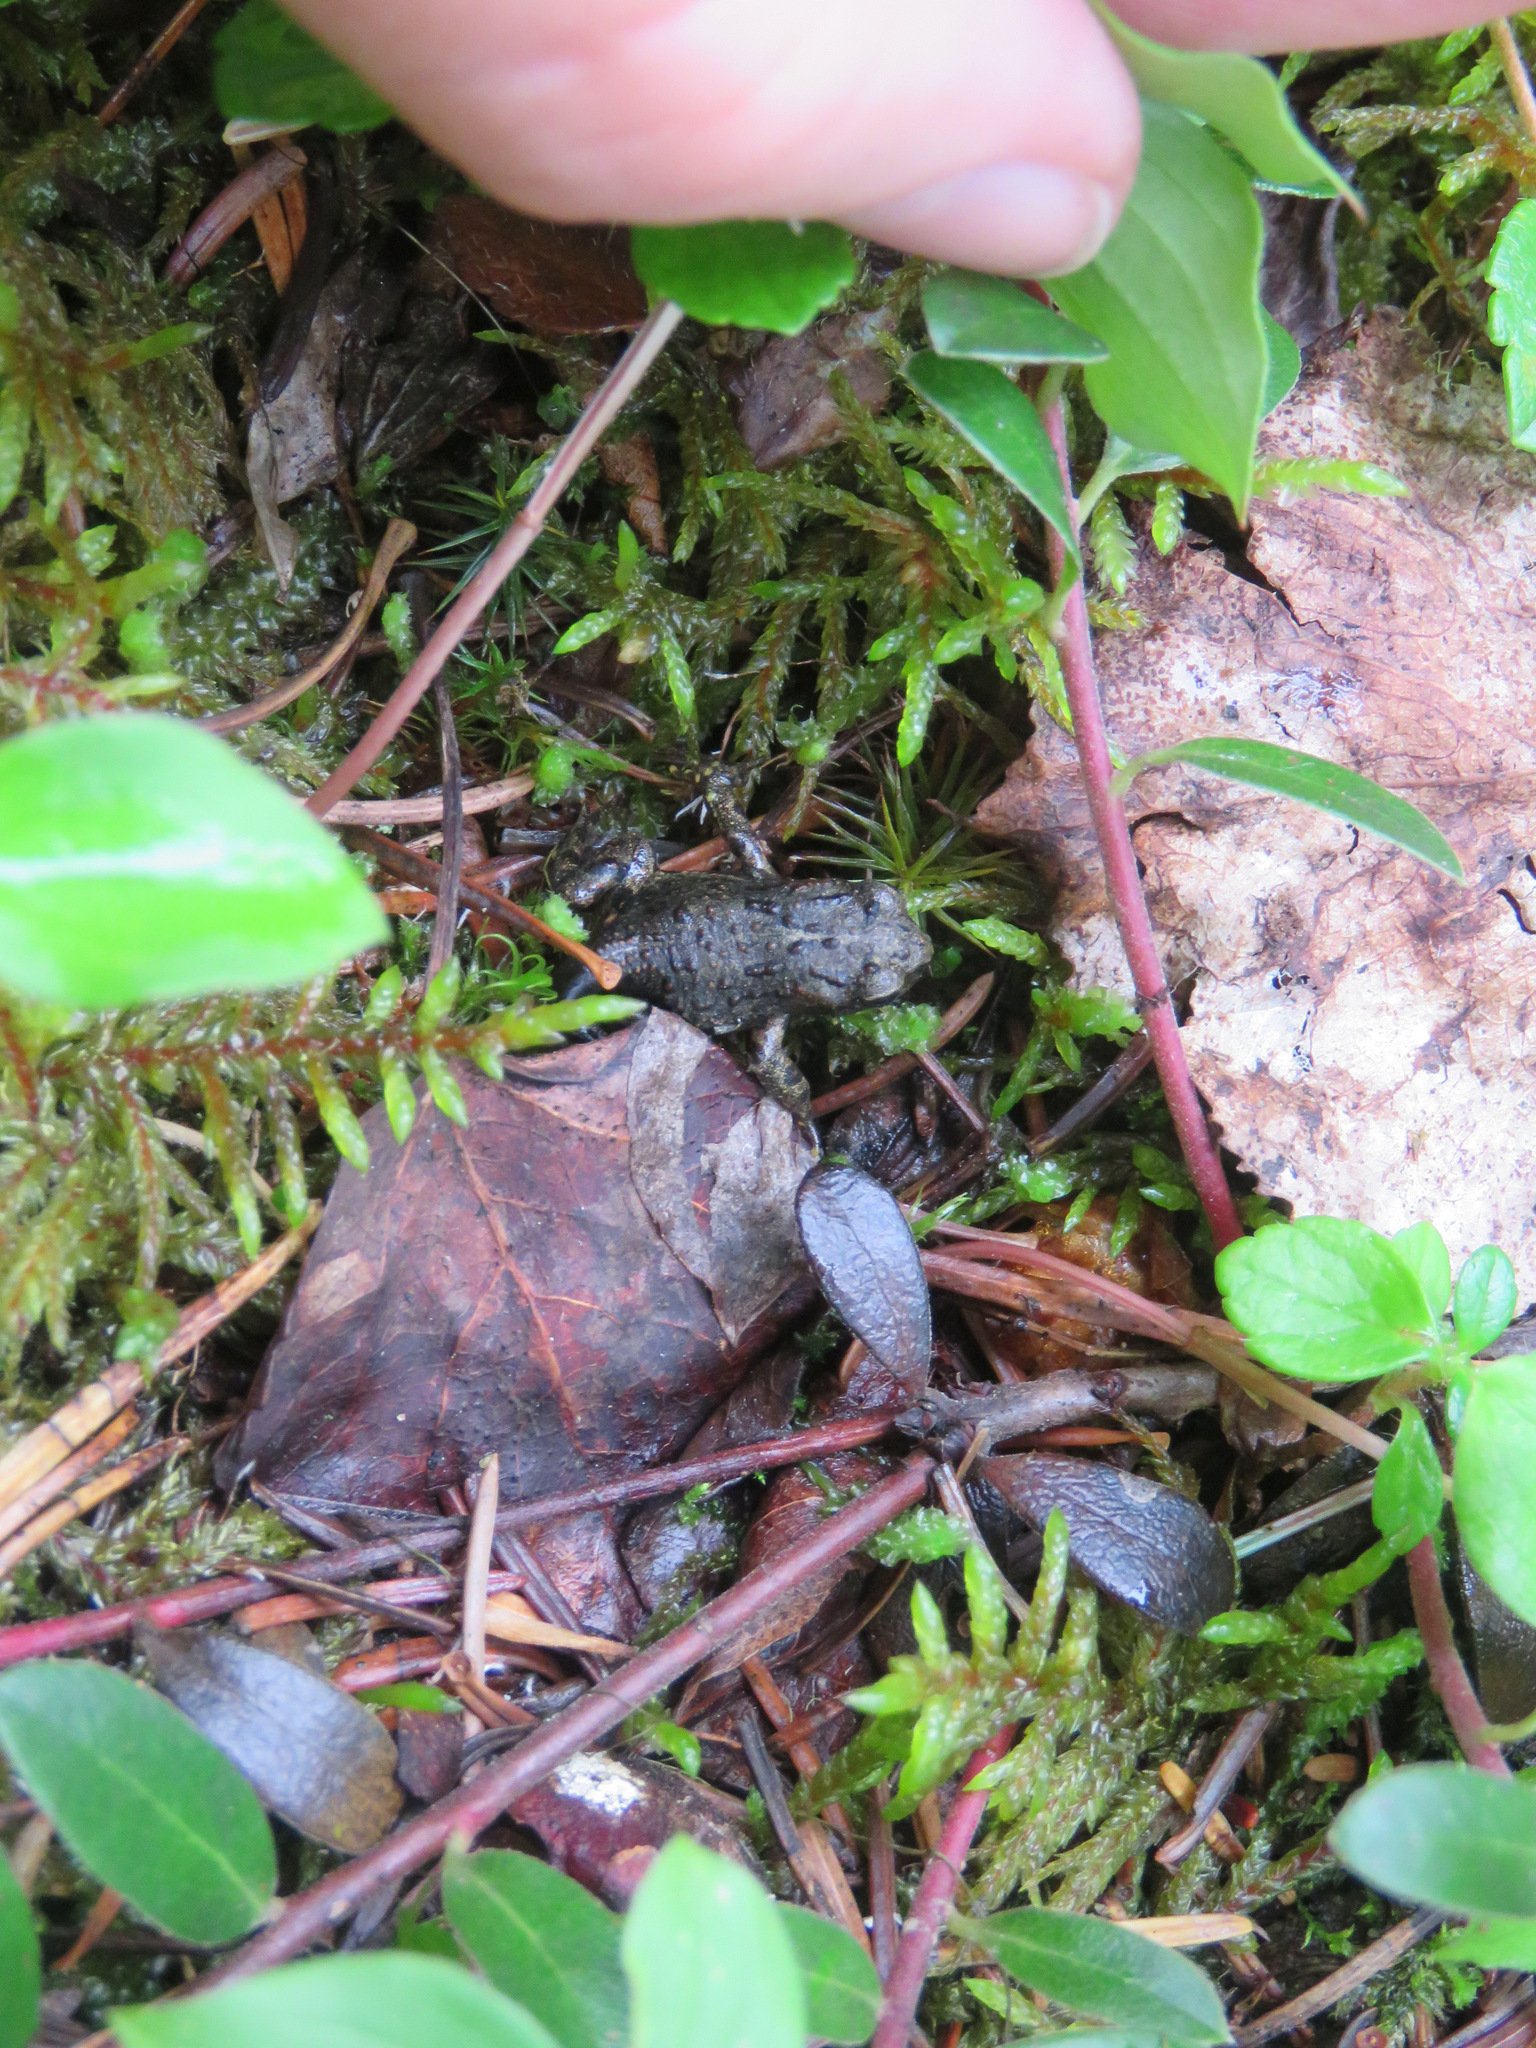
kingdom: Animalia
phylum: Chordata
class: Amphibia
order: Anura
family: Bufonidae
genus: Anaxyrus
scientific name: Anaxyrus boreas
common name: Western toad
